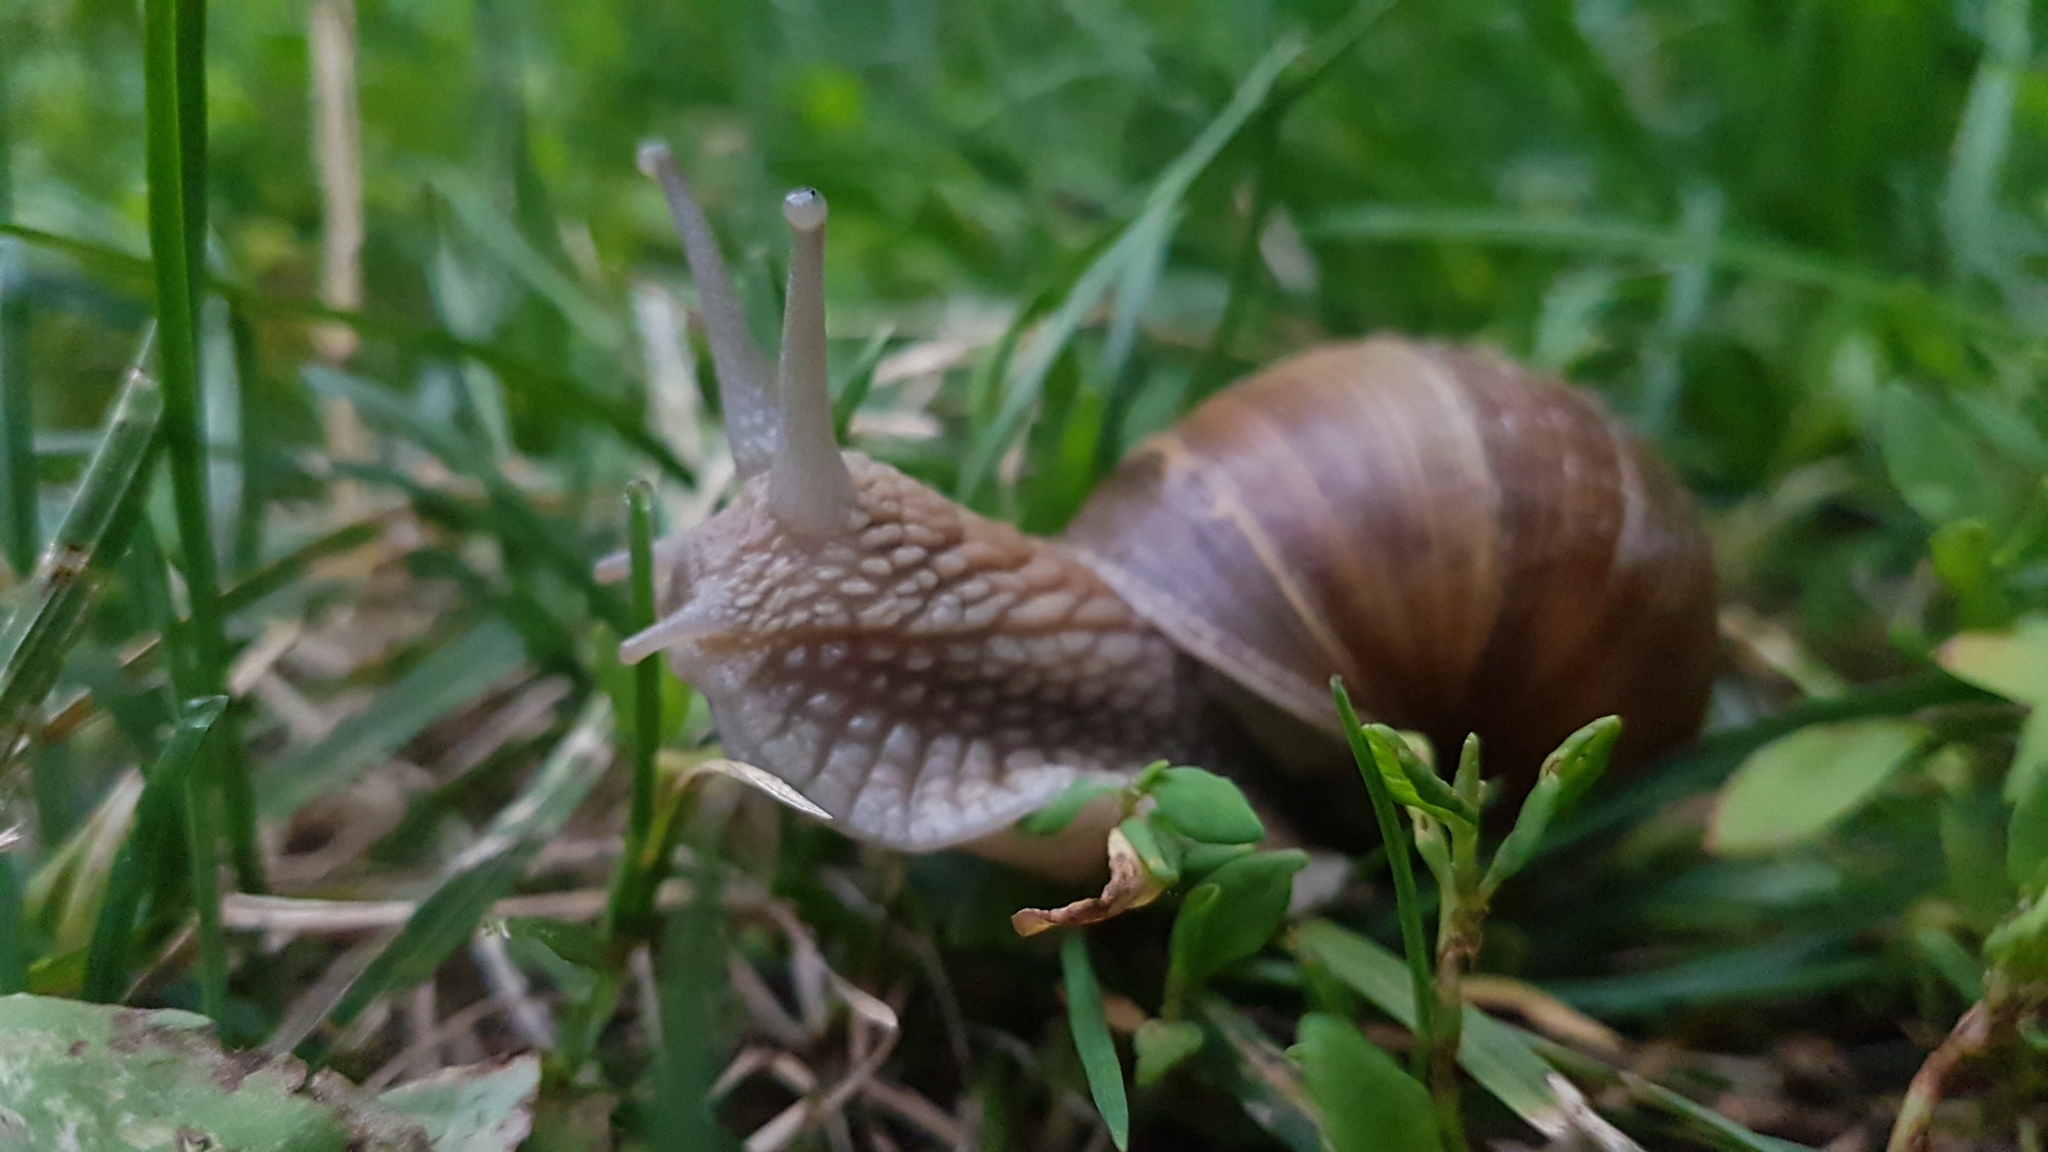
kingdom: Animalia
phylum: Mollusca
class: Gastropoda
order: Stylommatophora
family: Helicidae
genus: Helix
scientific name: Helix pomatia
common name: Roman snail
